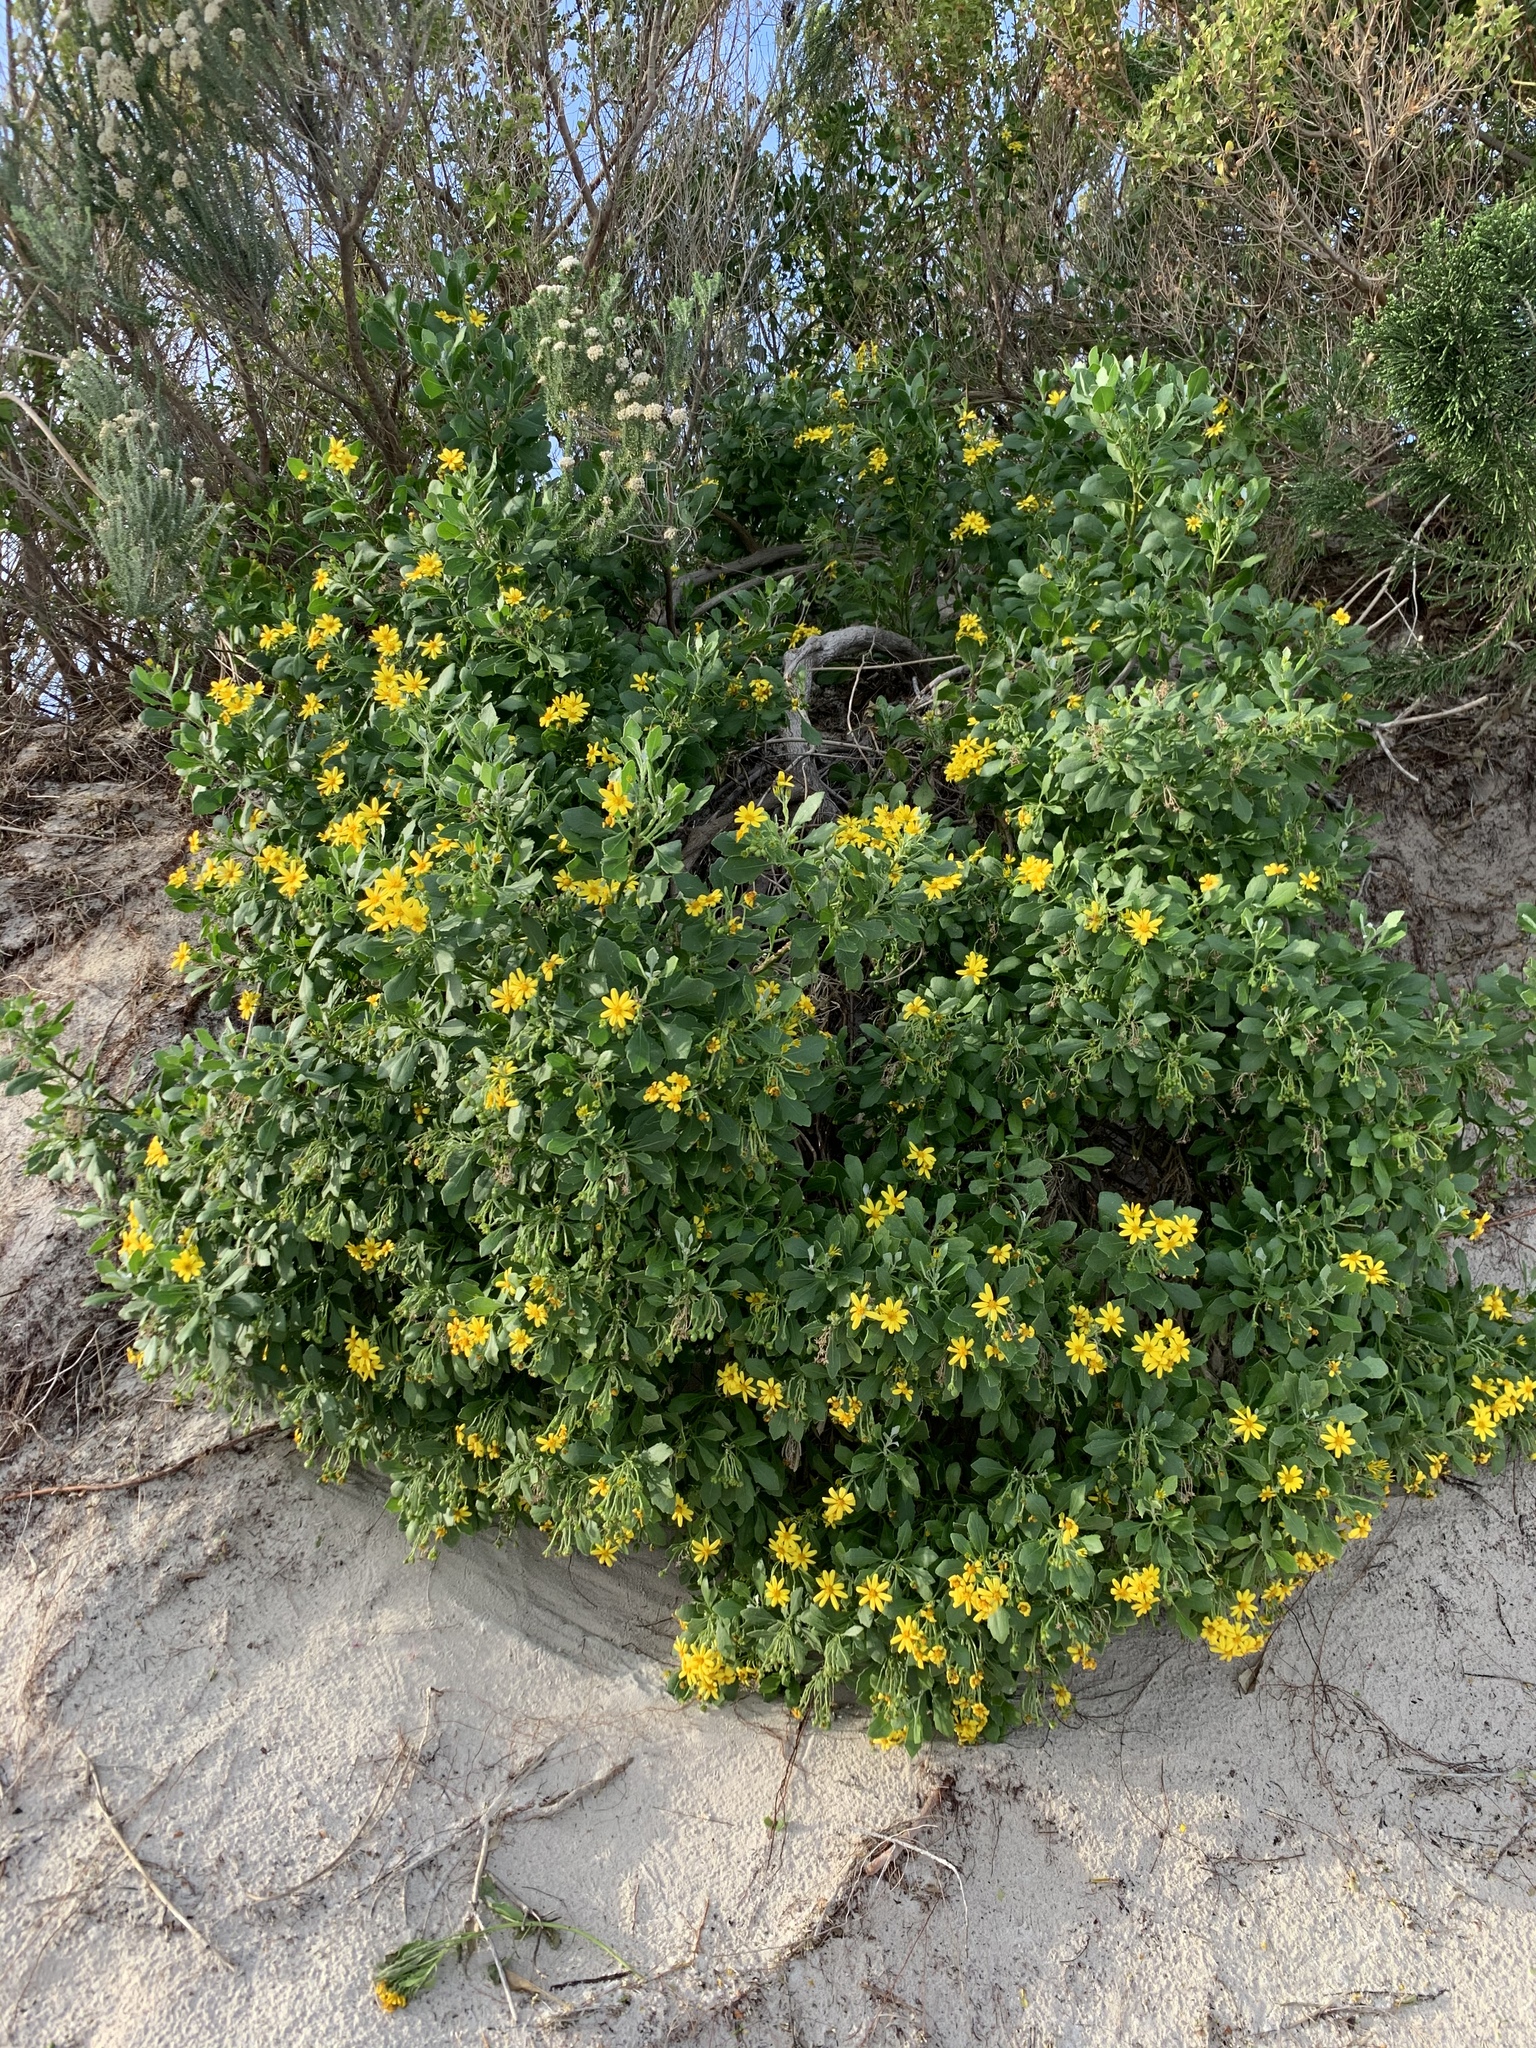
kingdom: Plantae
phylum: Tracheophyta
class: Magnoliopsida
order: Asterales
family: Asteraceae
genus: Osteospermum
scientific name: Osteospermum moniliferum
